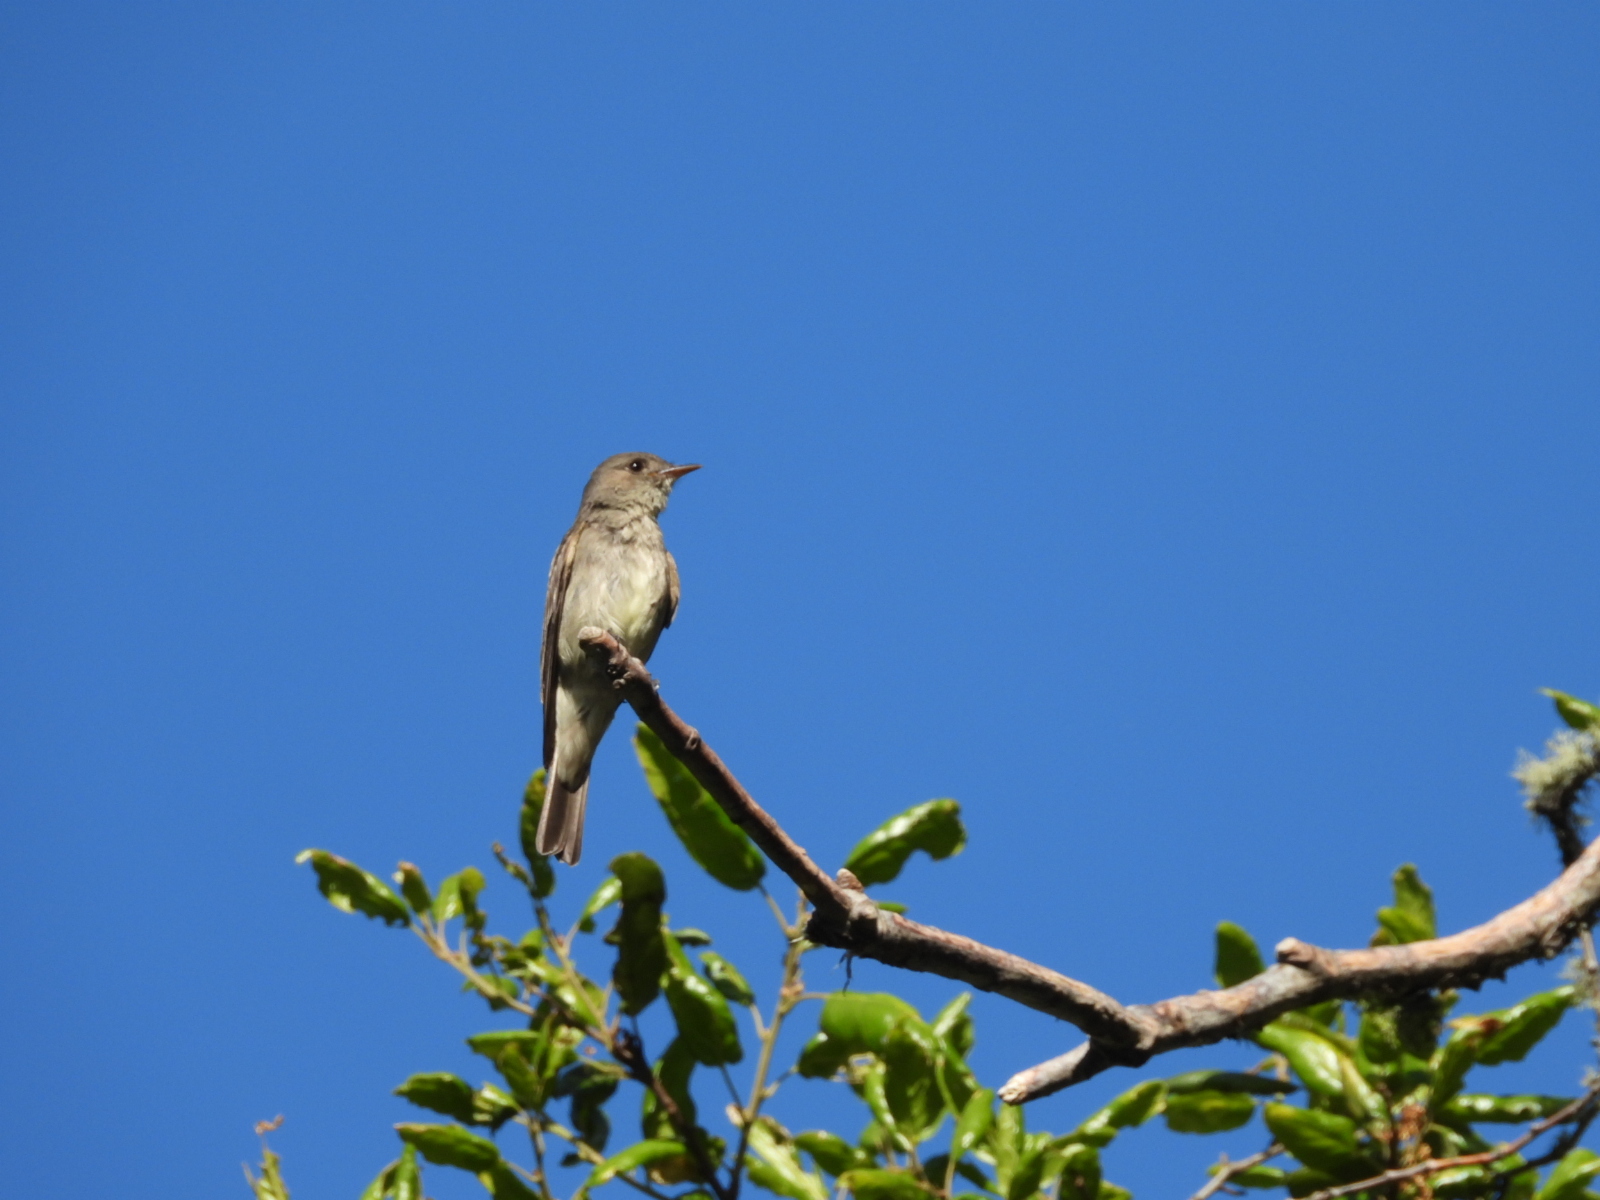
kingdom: Animalia
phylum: Chordata
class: Aves
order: Passeriformes
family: Tyrannidae
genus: Contopus
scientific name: Contopus sordidulus
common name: Western wood-pewee
